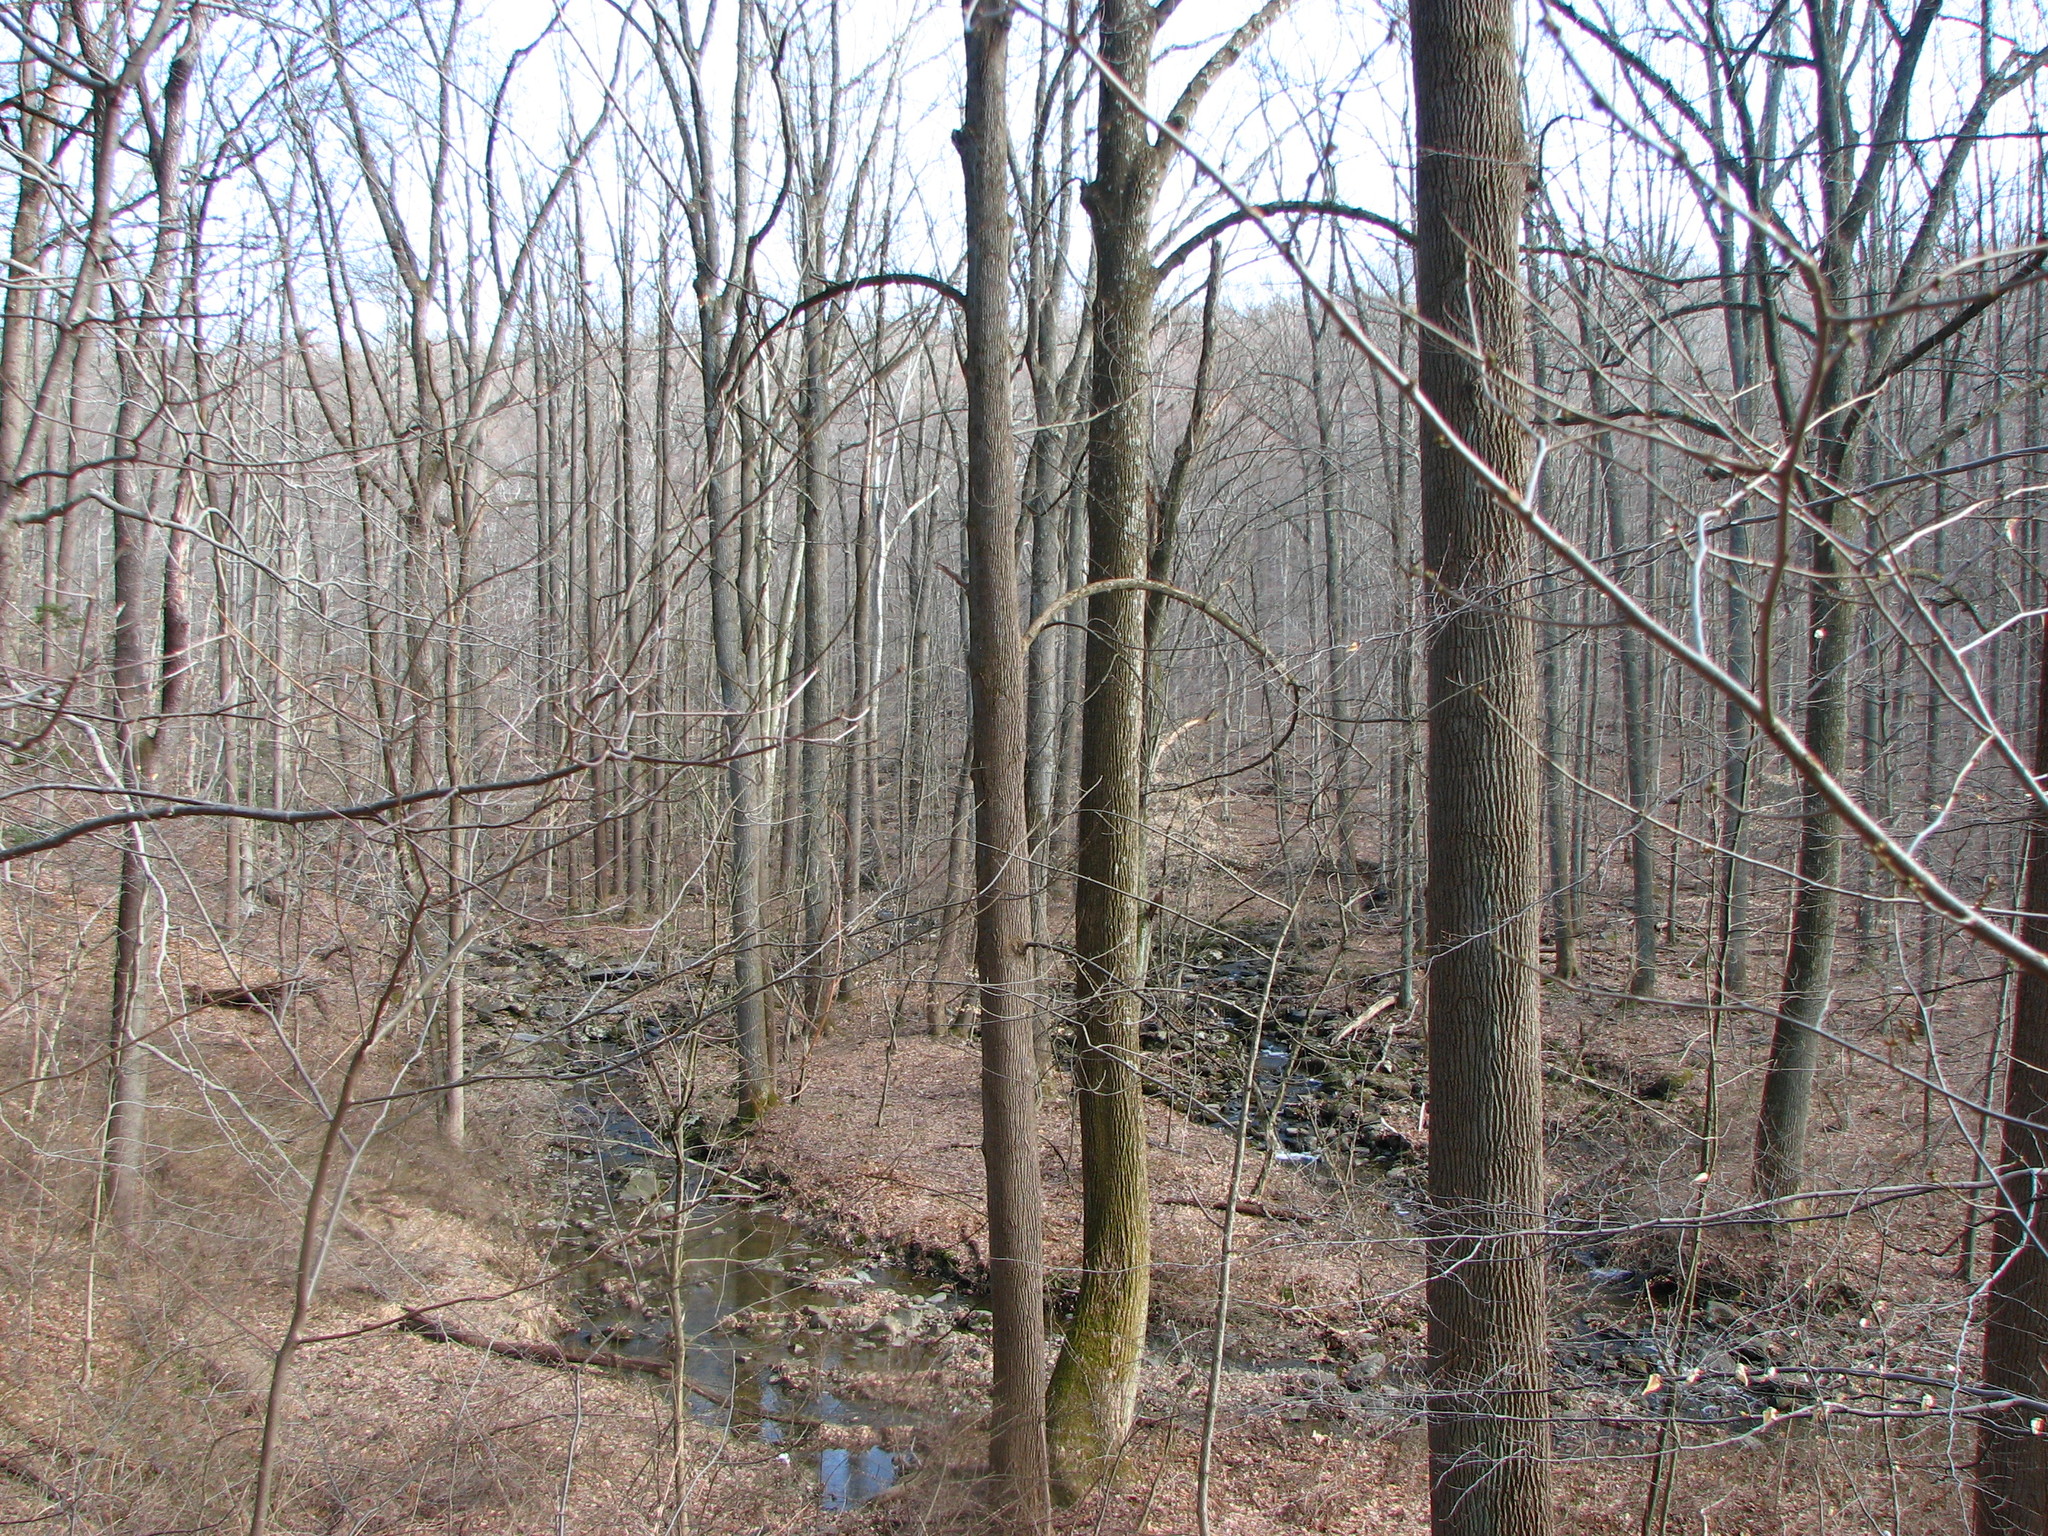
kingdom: Plantae
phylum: Tracheophyta
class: Magnoliopsida
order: Magnoliales
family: Magnoliaceae
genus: Liriodendron
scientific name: Liriodendron tulipifera
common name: Tulip tree
